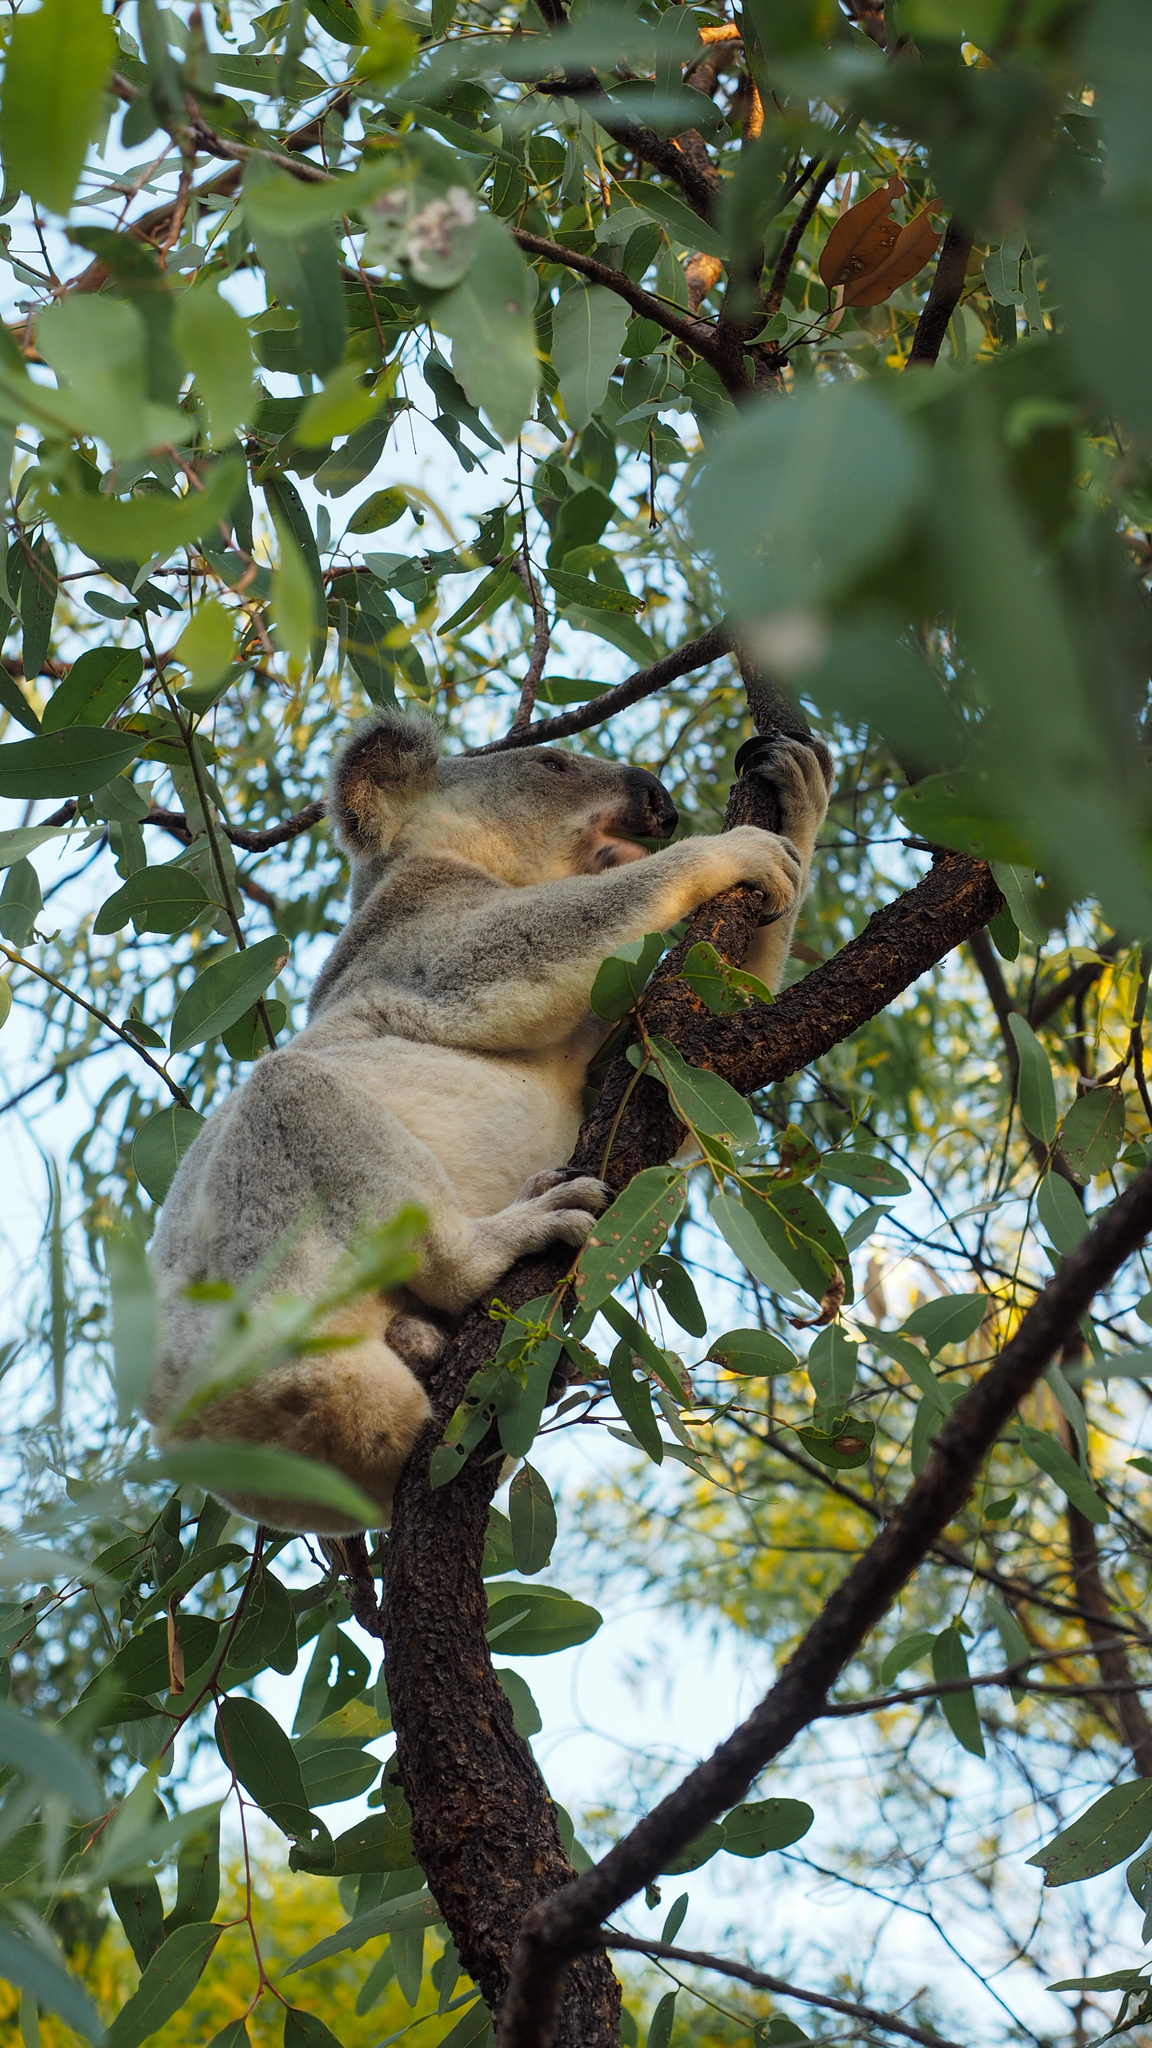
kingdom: Animalia
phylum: Chordata
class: Mammalia
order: Diprotodontia
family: Phascolarctidae
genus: Phascolarctos
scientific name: Phascolarctos cinereus
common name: Koala
